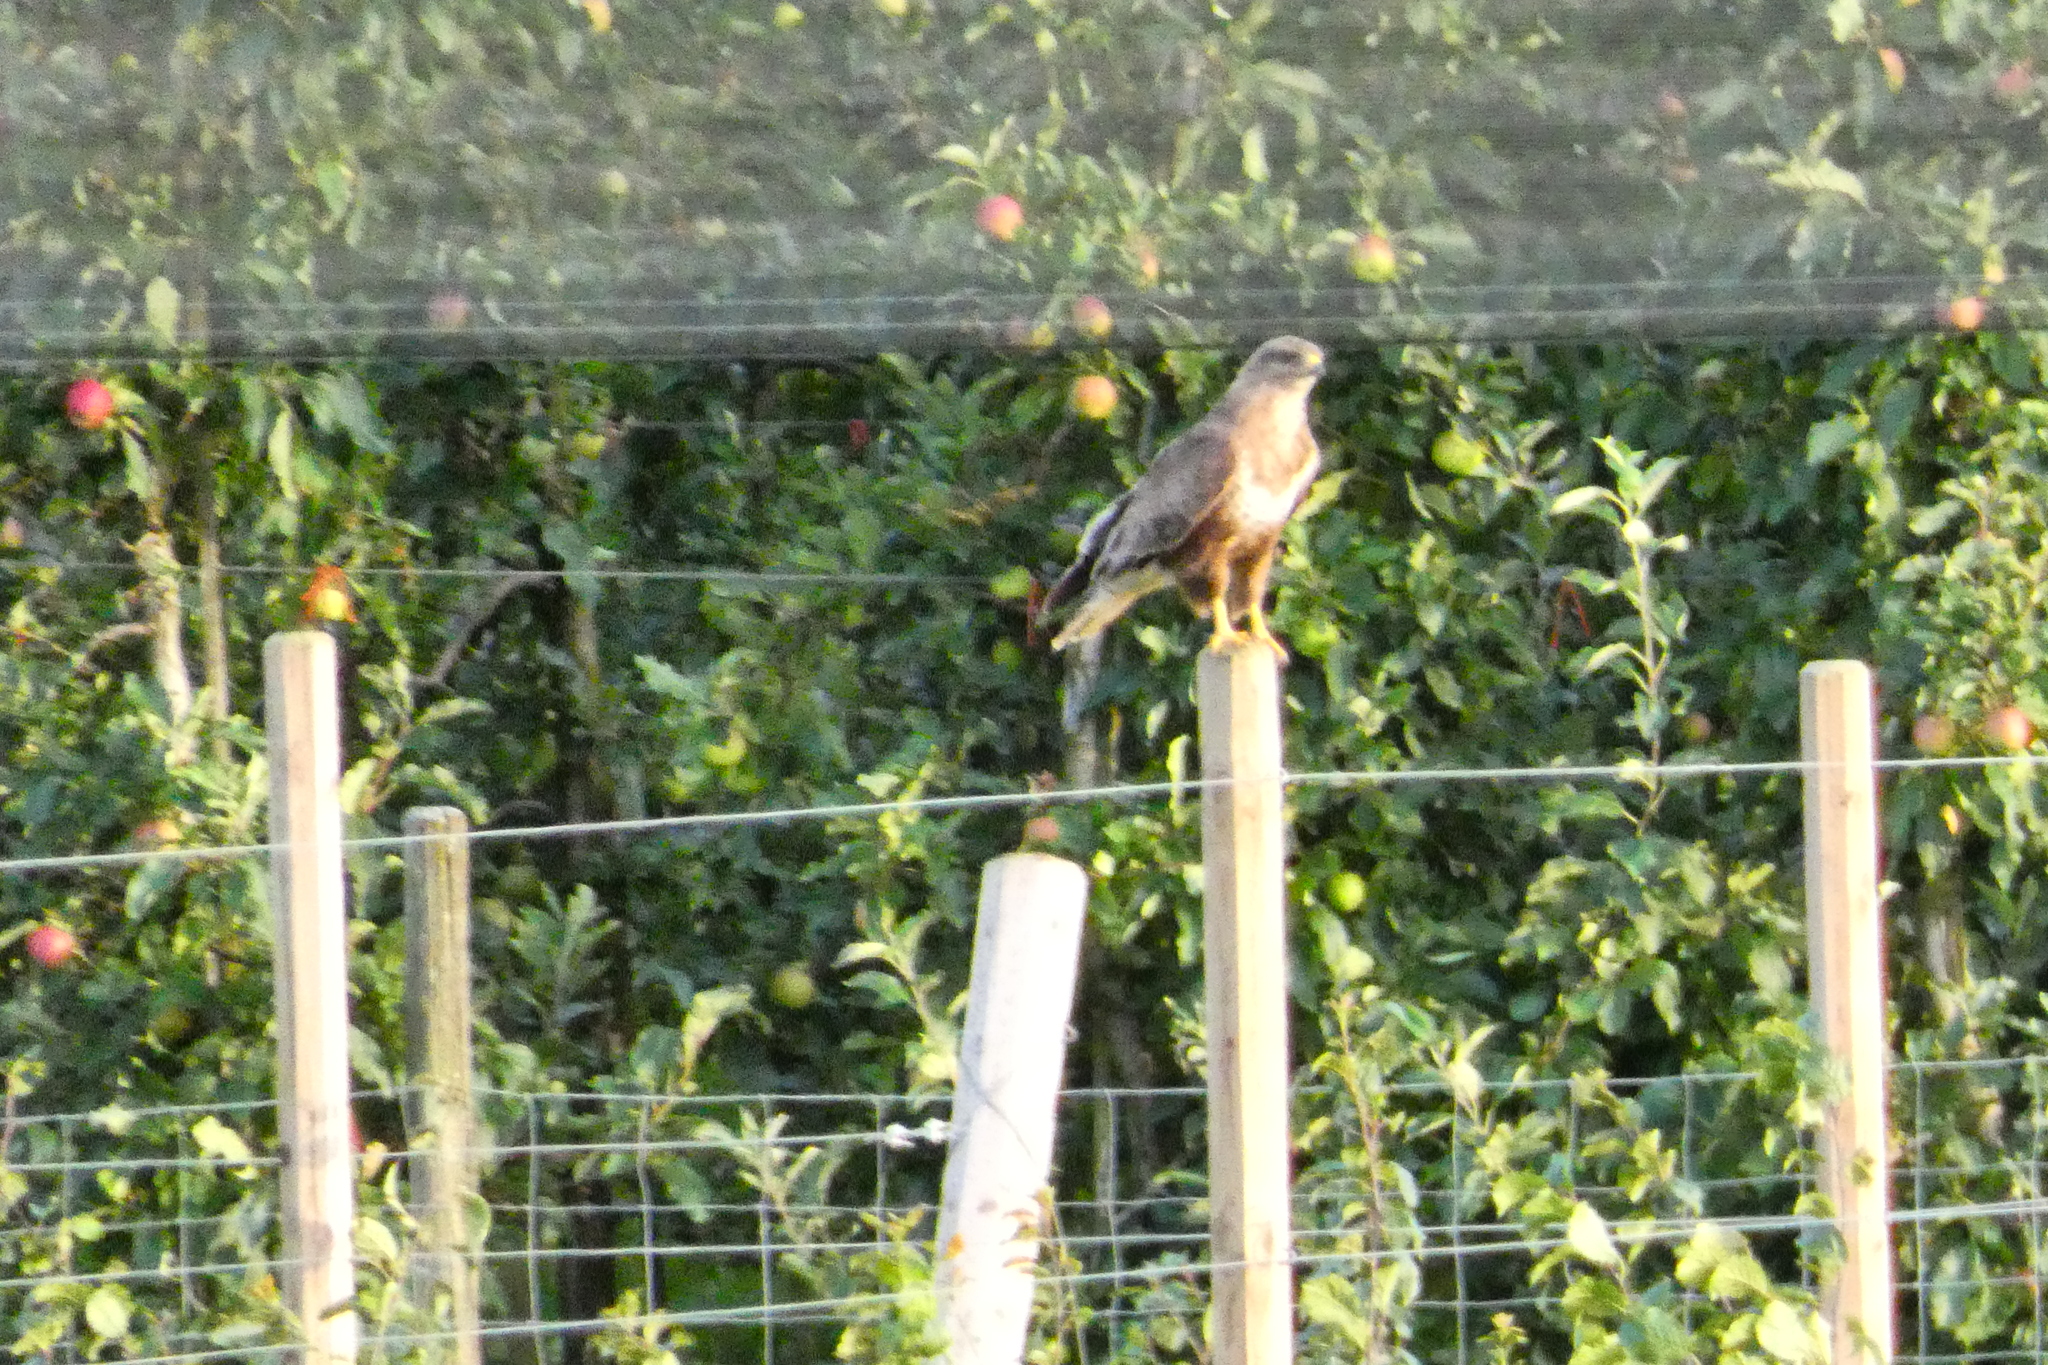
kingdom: Animalia
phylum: Chordata
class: Aves
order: Accipitriformes
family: Accipitridae
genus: Buteo
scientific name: Buteo buteo
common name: Common buzzard
